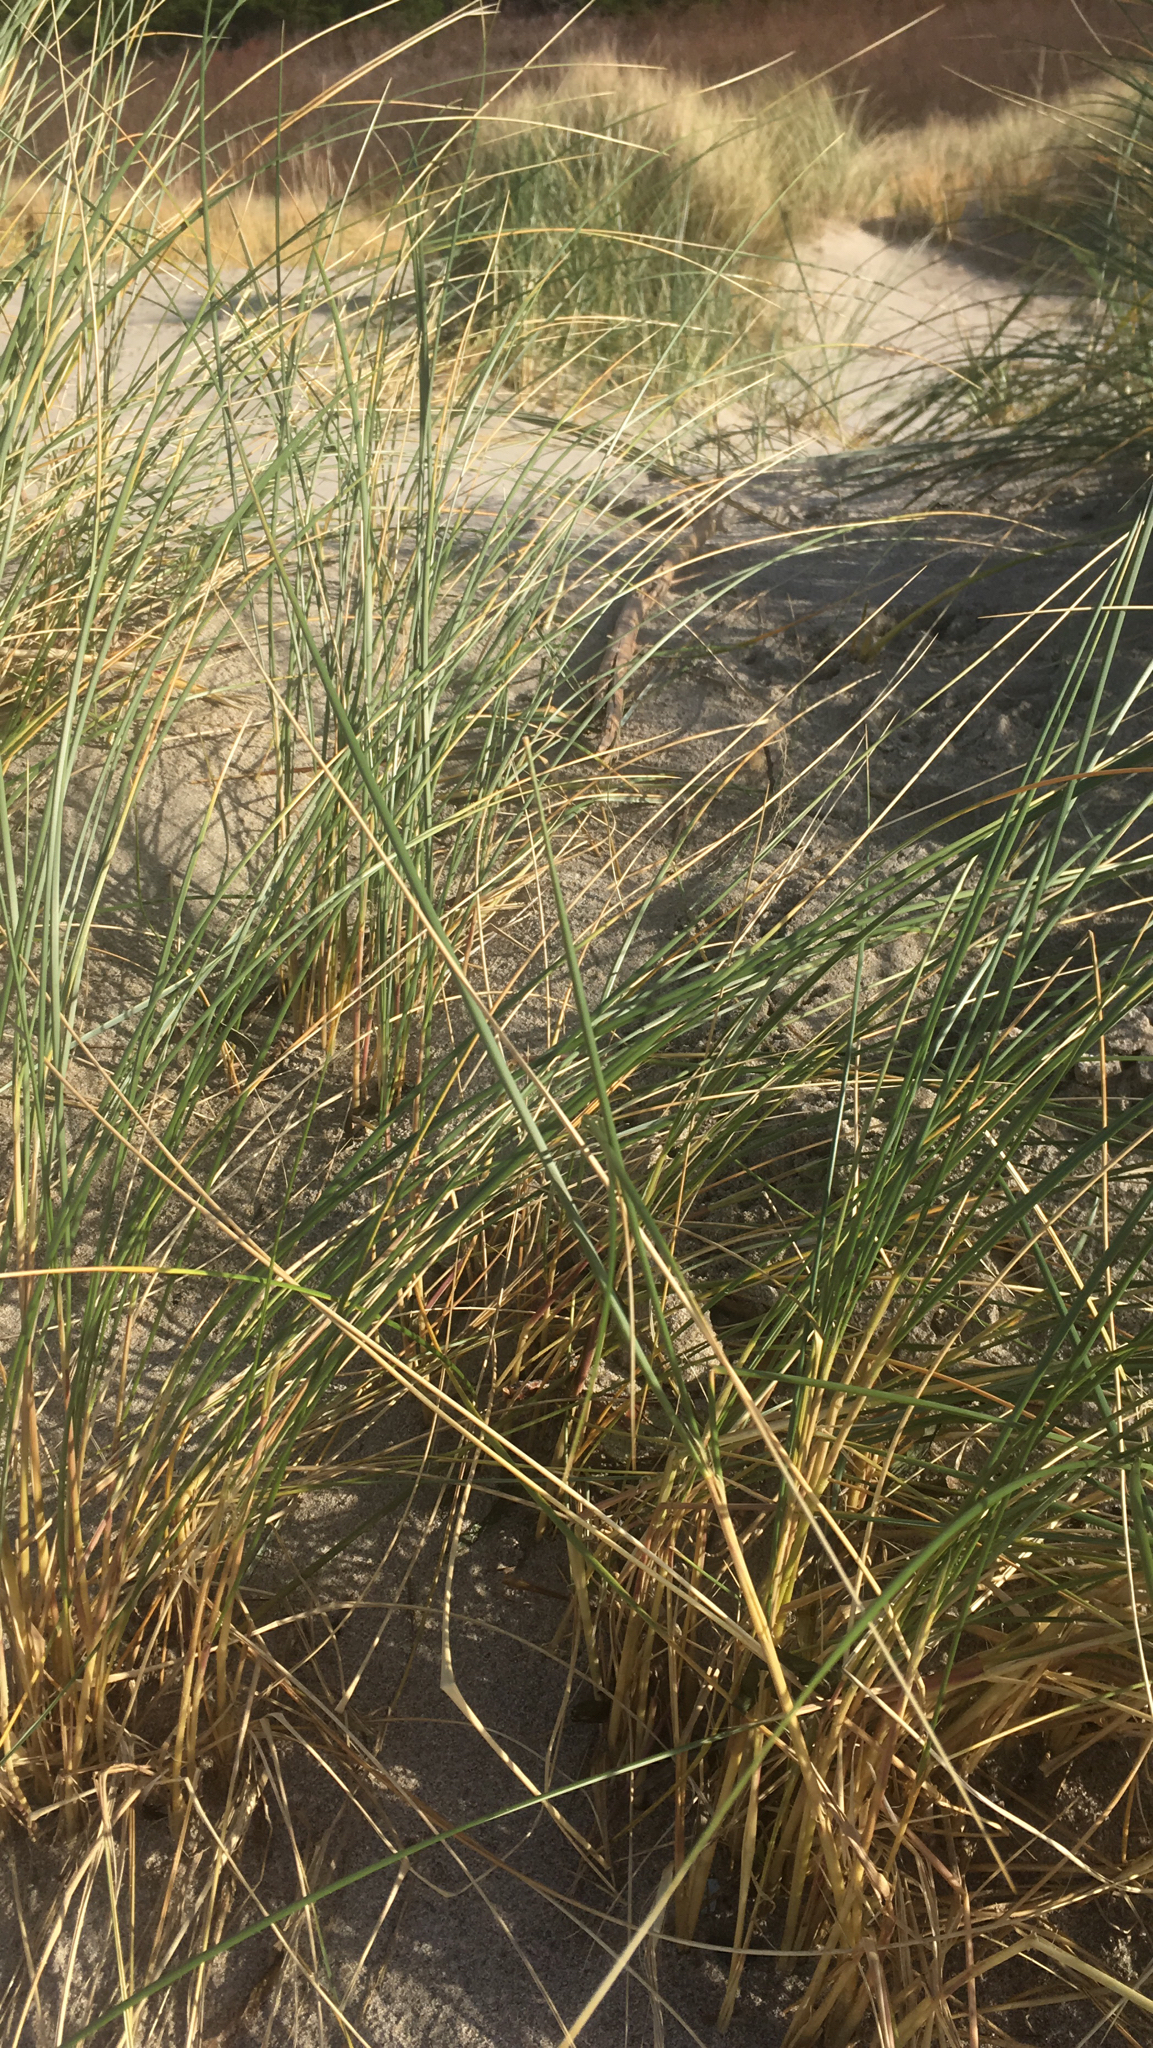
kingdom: Plantae
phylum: Tracheophyta
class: Liliopsida
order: Poales
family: Poaceae
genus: Calamagrostis
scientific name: Calamagrostis arenaria
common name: European beachgrass
